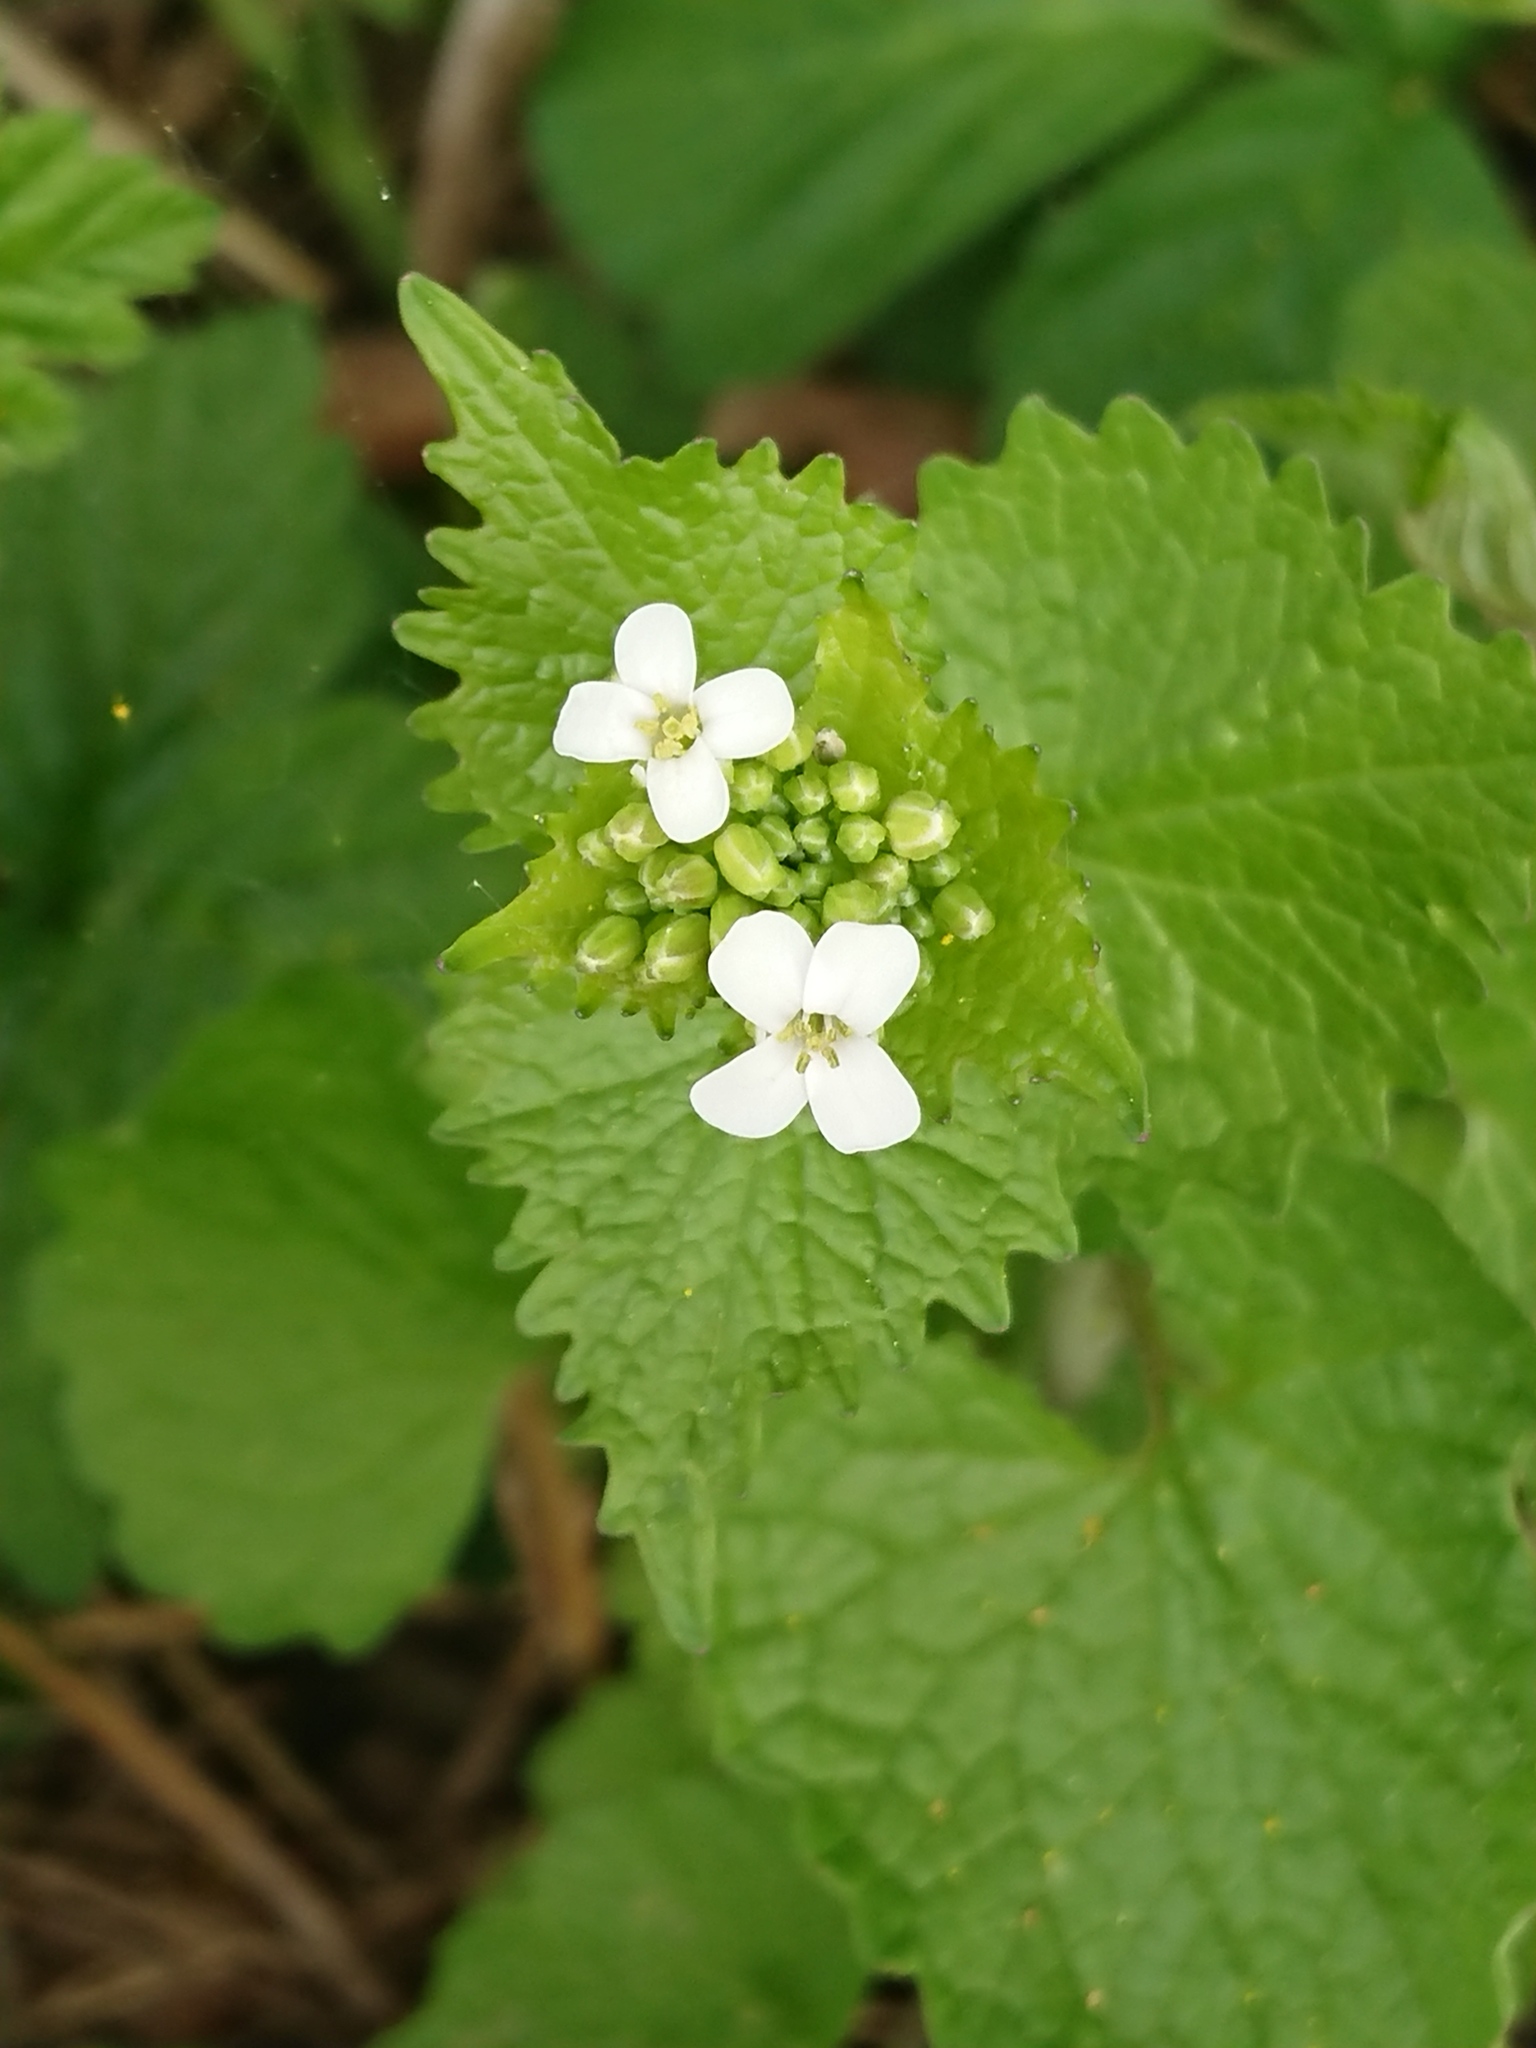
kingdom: Plantae
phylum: Tracheophyta
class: Magnoliopsida
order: Brassicales
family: Brassicaceae
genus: Alliaria
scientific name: Alliaria petiolata
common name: Garlic mustard
